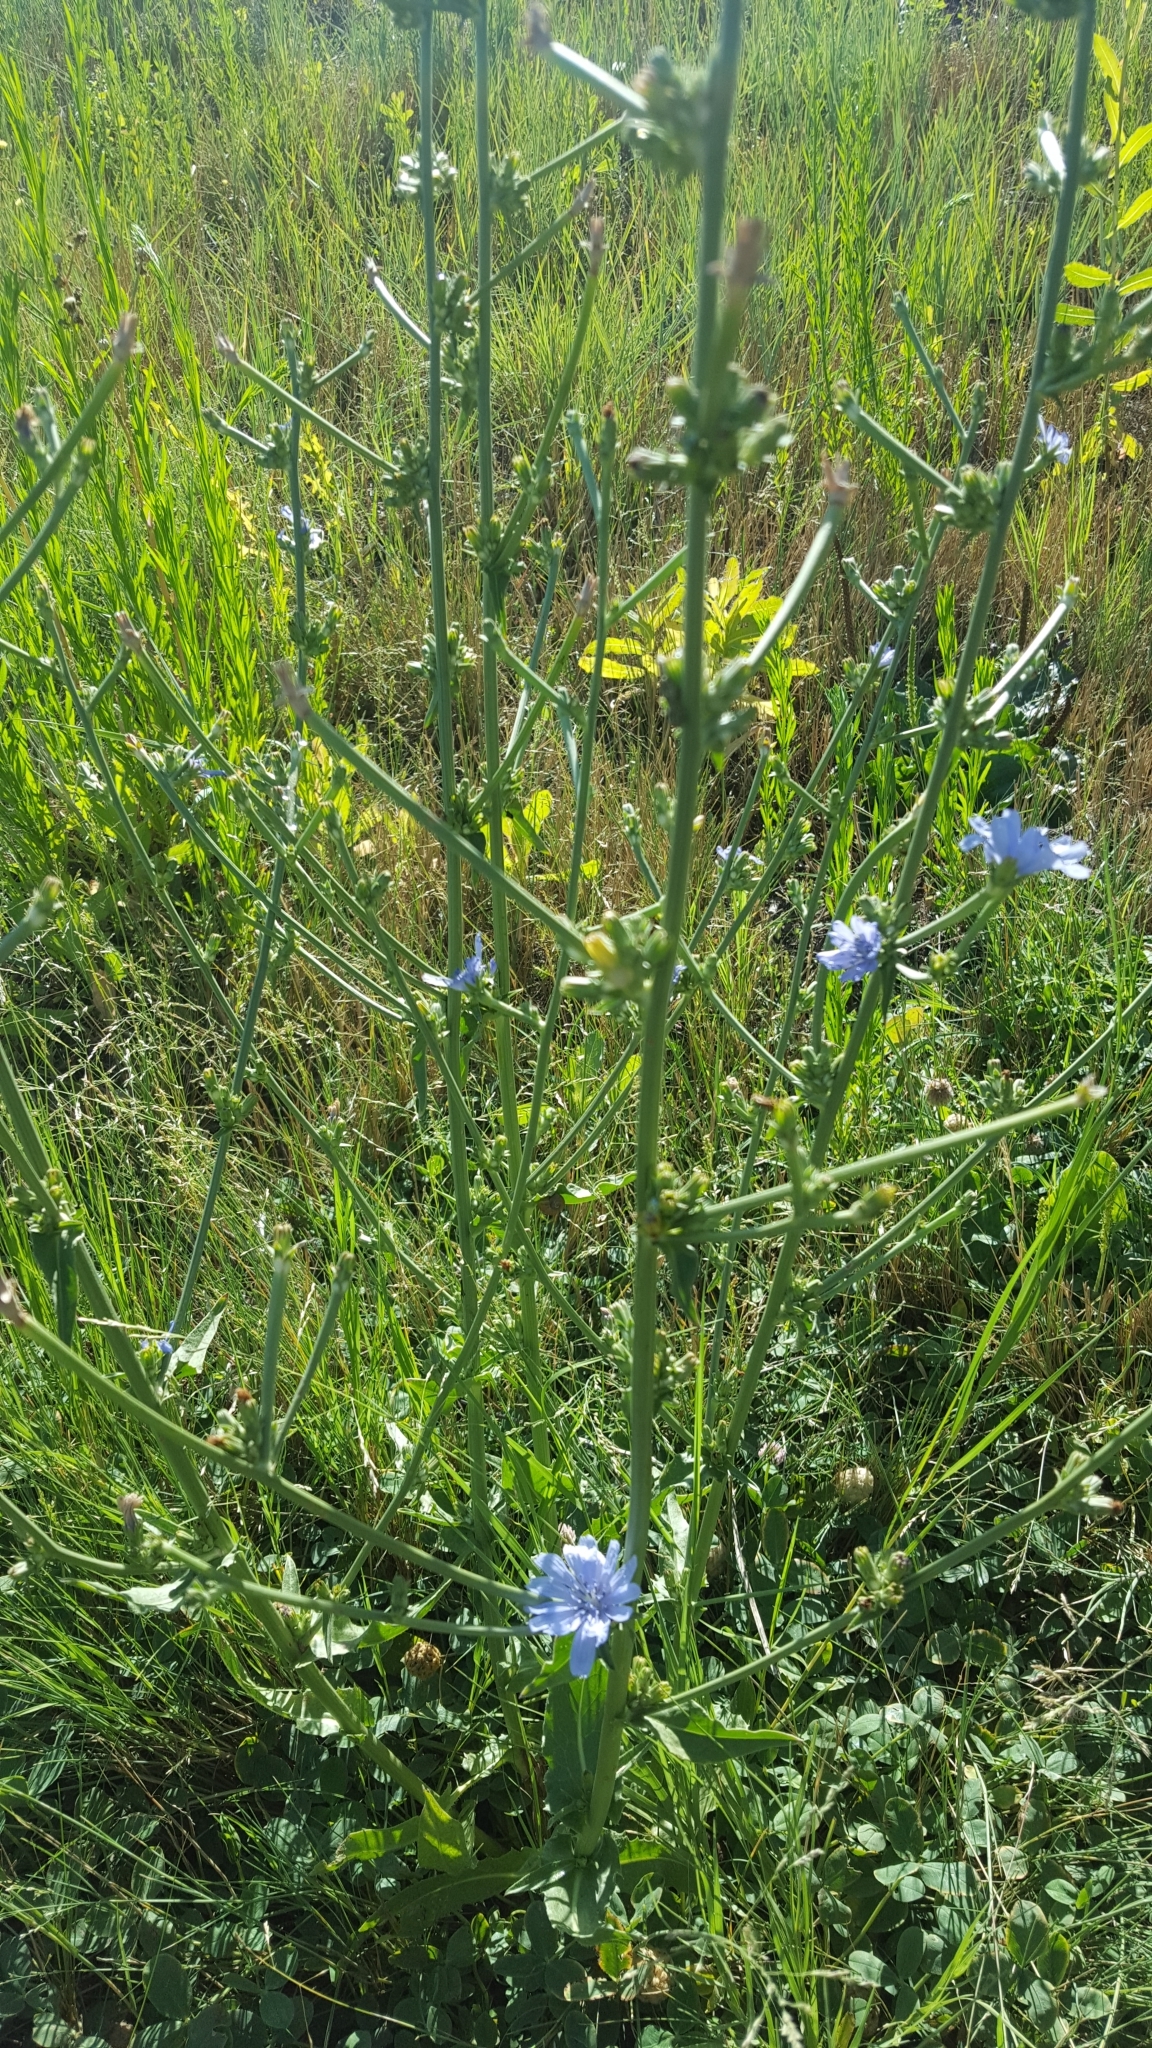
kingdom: Plantae
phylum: Tracheophyta
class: Magnoliopsida
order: Asterales
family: Asteraceae
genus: Cichorium
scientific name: Cichorium intybus
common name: Chicory
